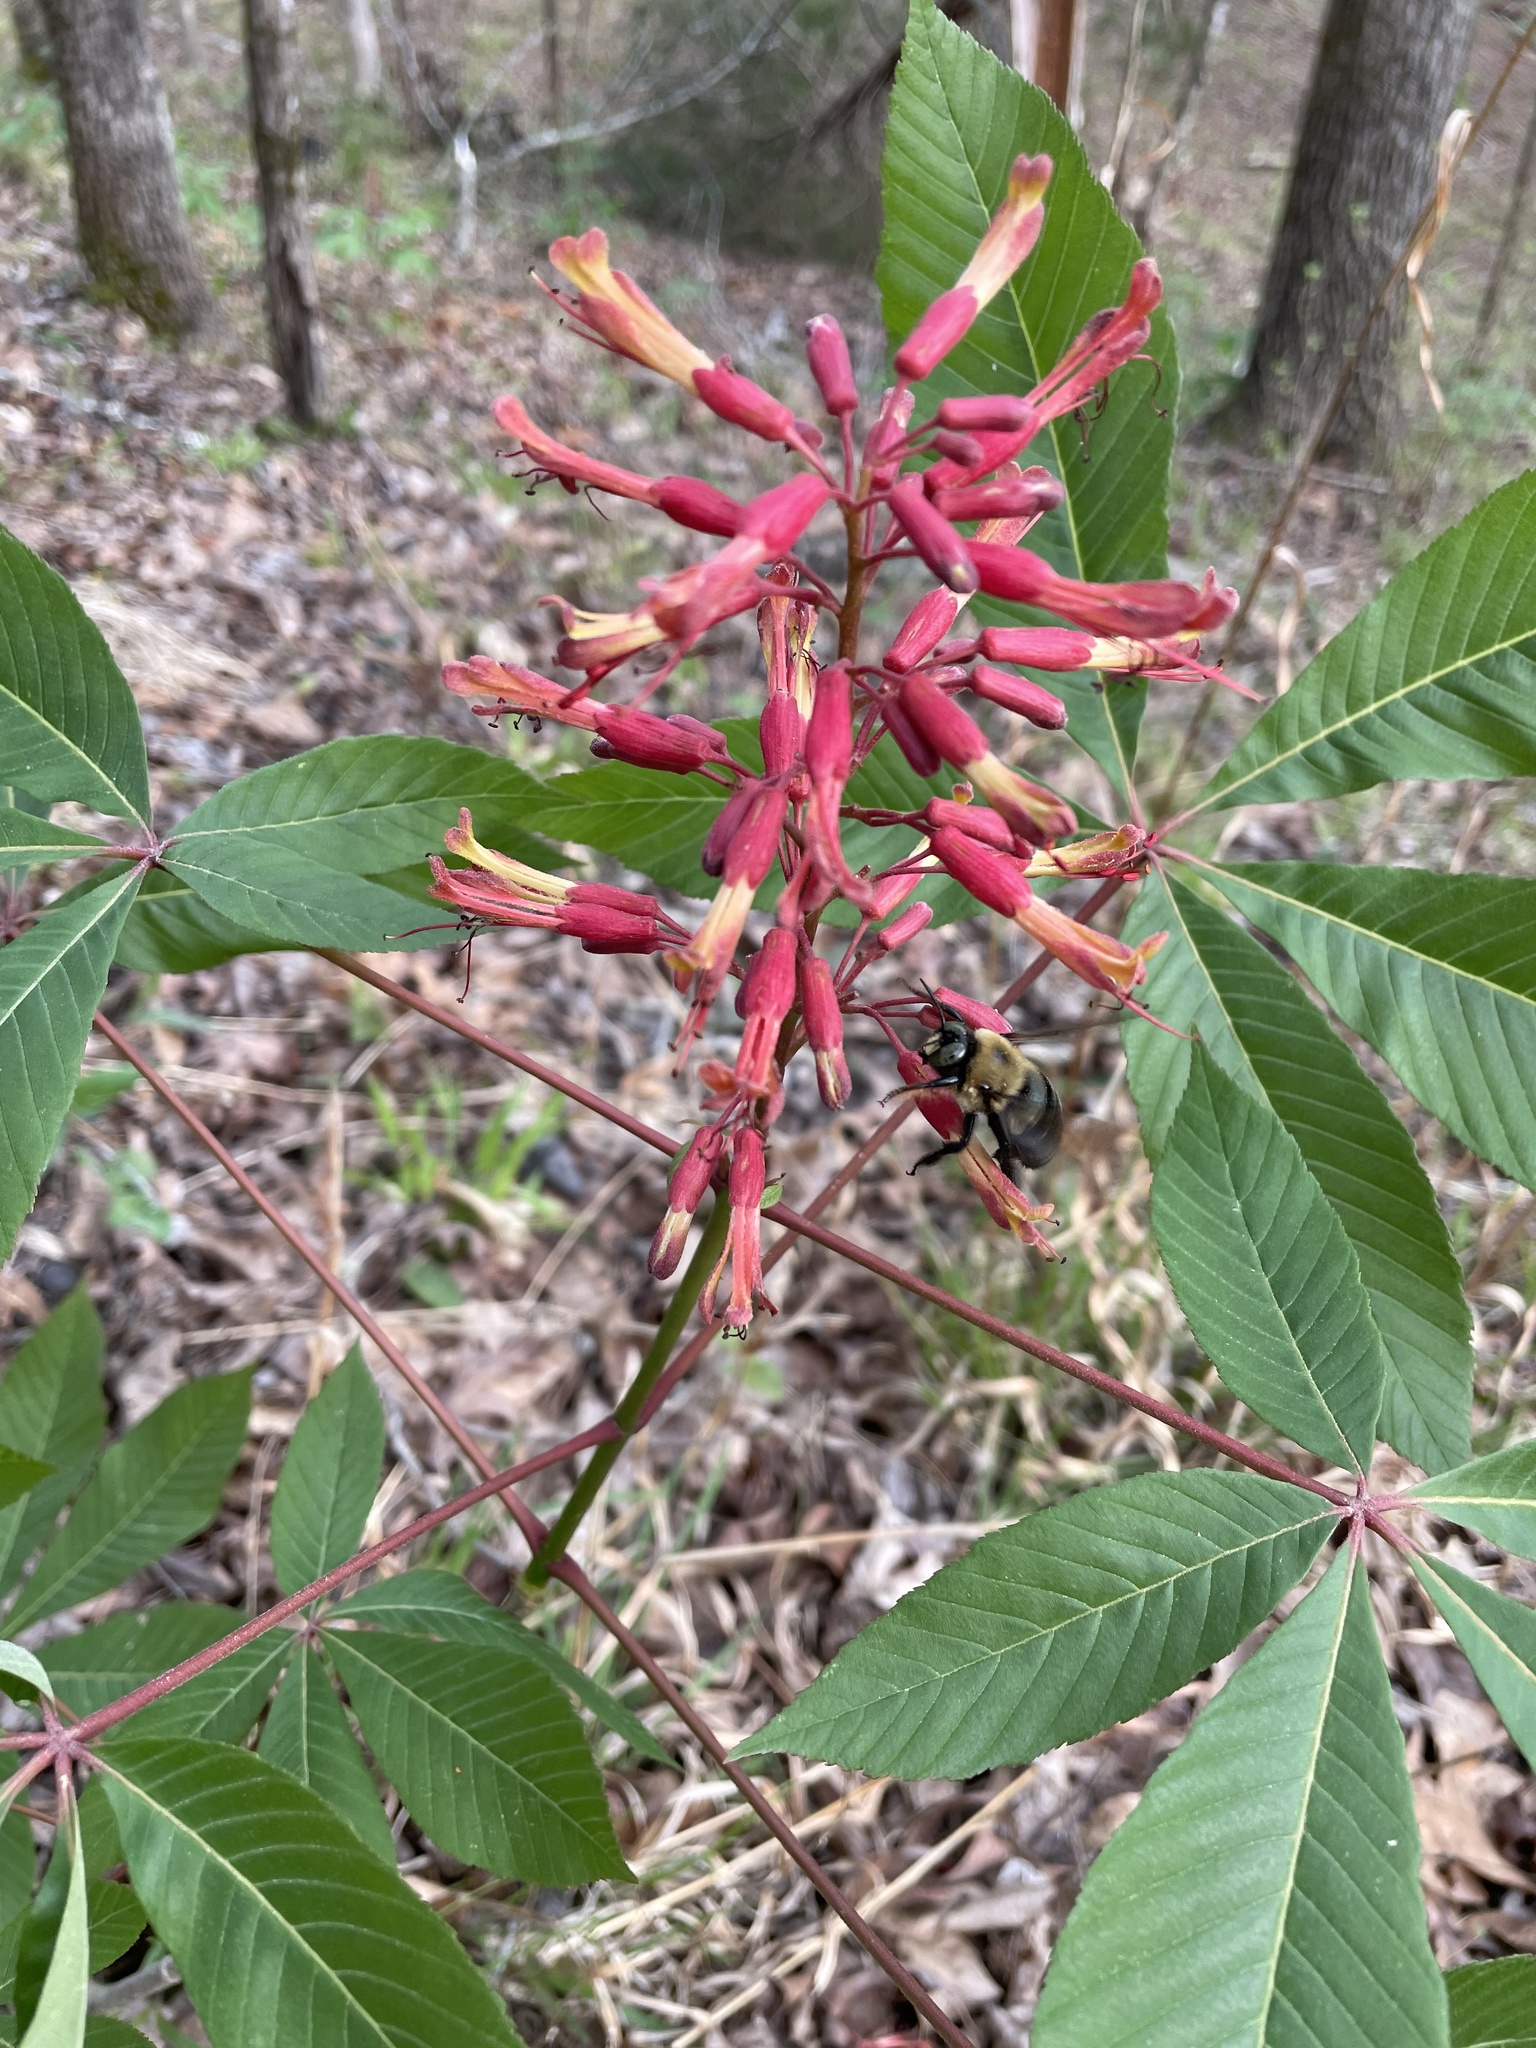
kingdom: Plantae
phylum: Tracheophyta
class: Magnoliopsida
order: Sapindales
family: Sapindaceae
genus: Aesculus
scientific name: Aesculus pavia
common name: Red buckeye
